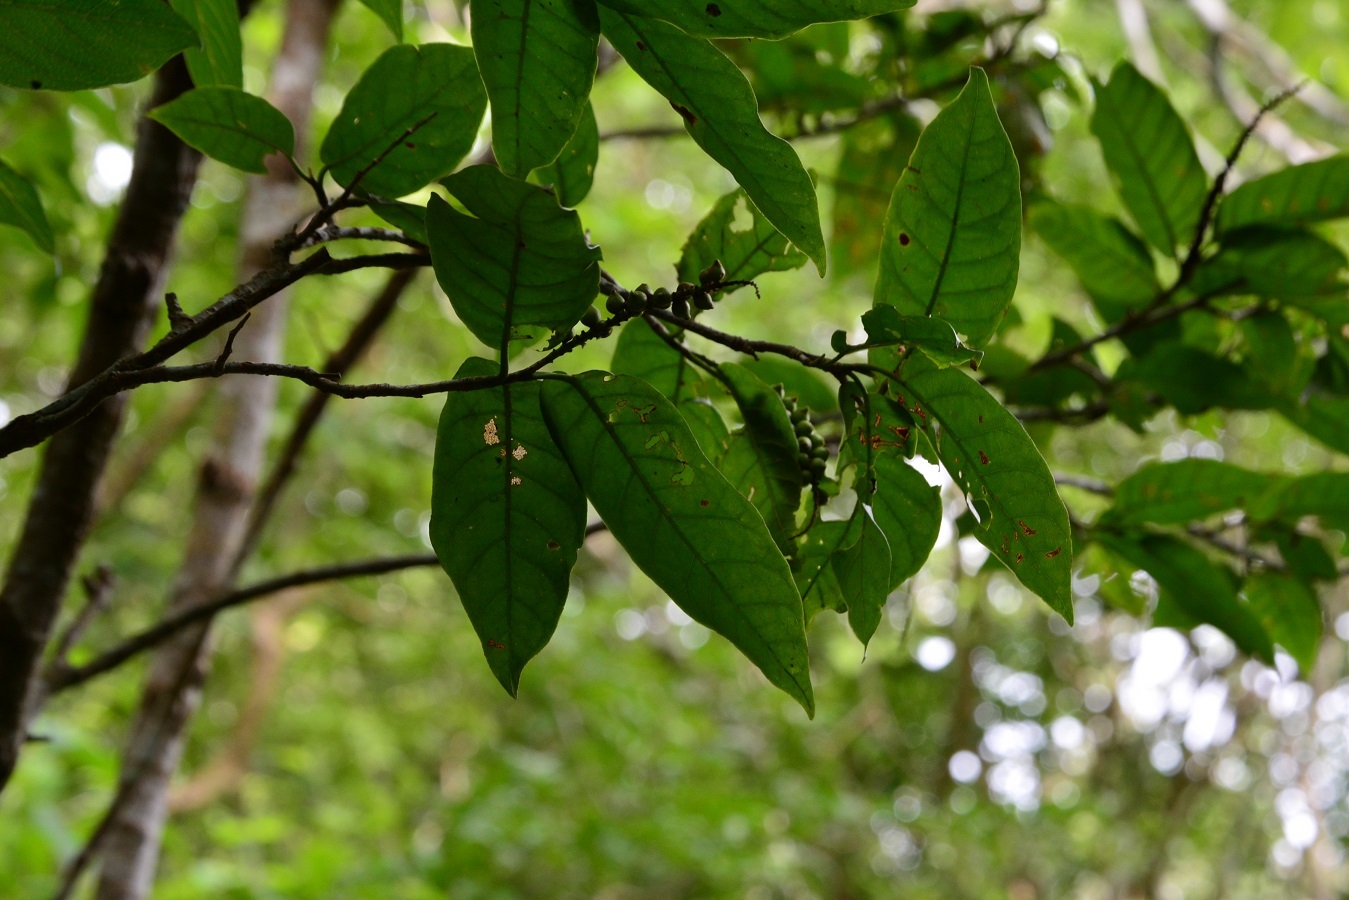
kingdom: Plantae
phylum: Tracheophyta
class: Magnoliopsida
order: Caryophyllales
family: Polygonaceae
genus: Coccoloba
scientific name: Coccoloba floresii
